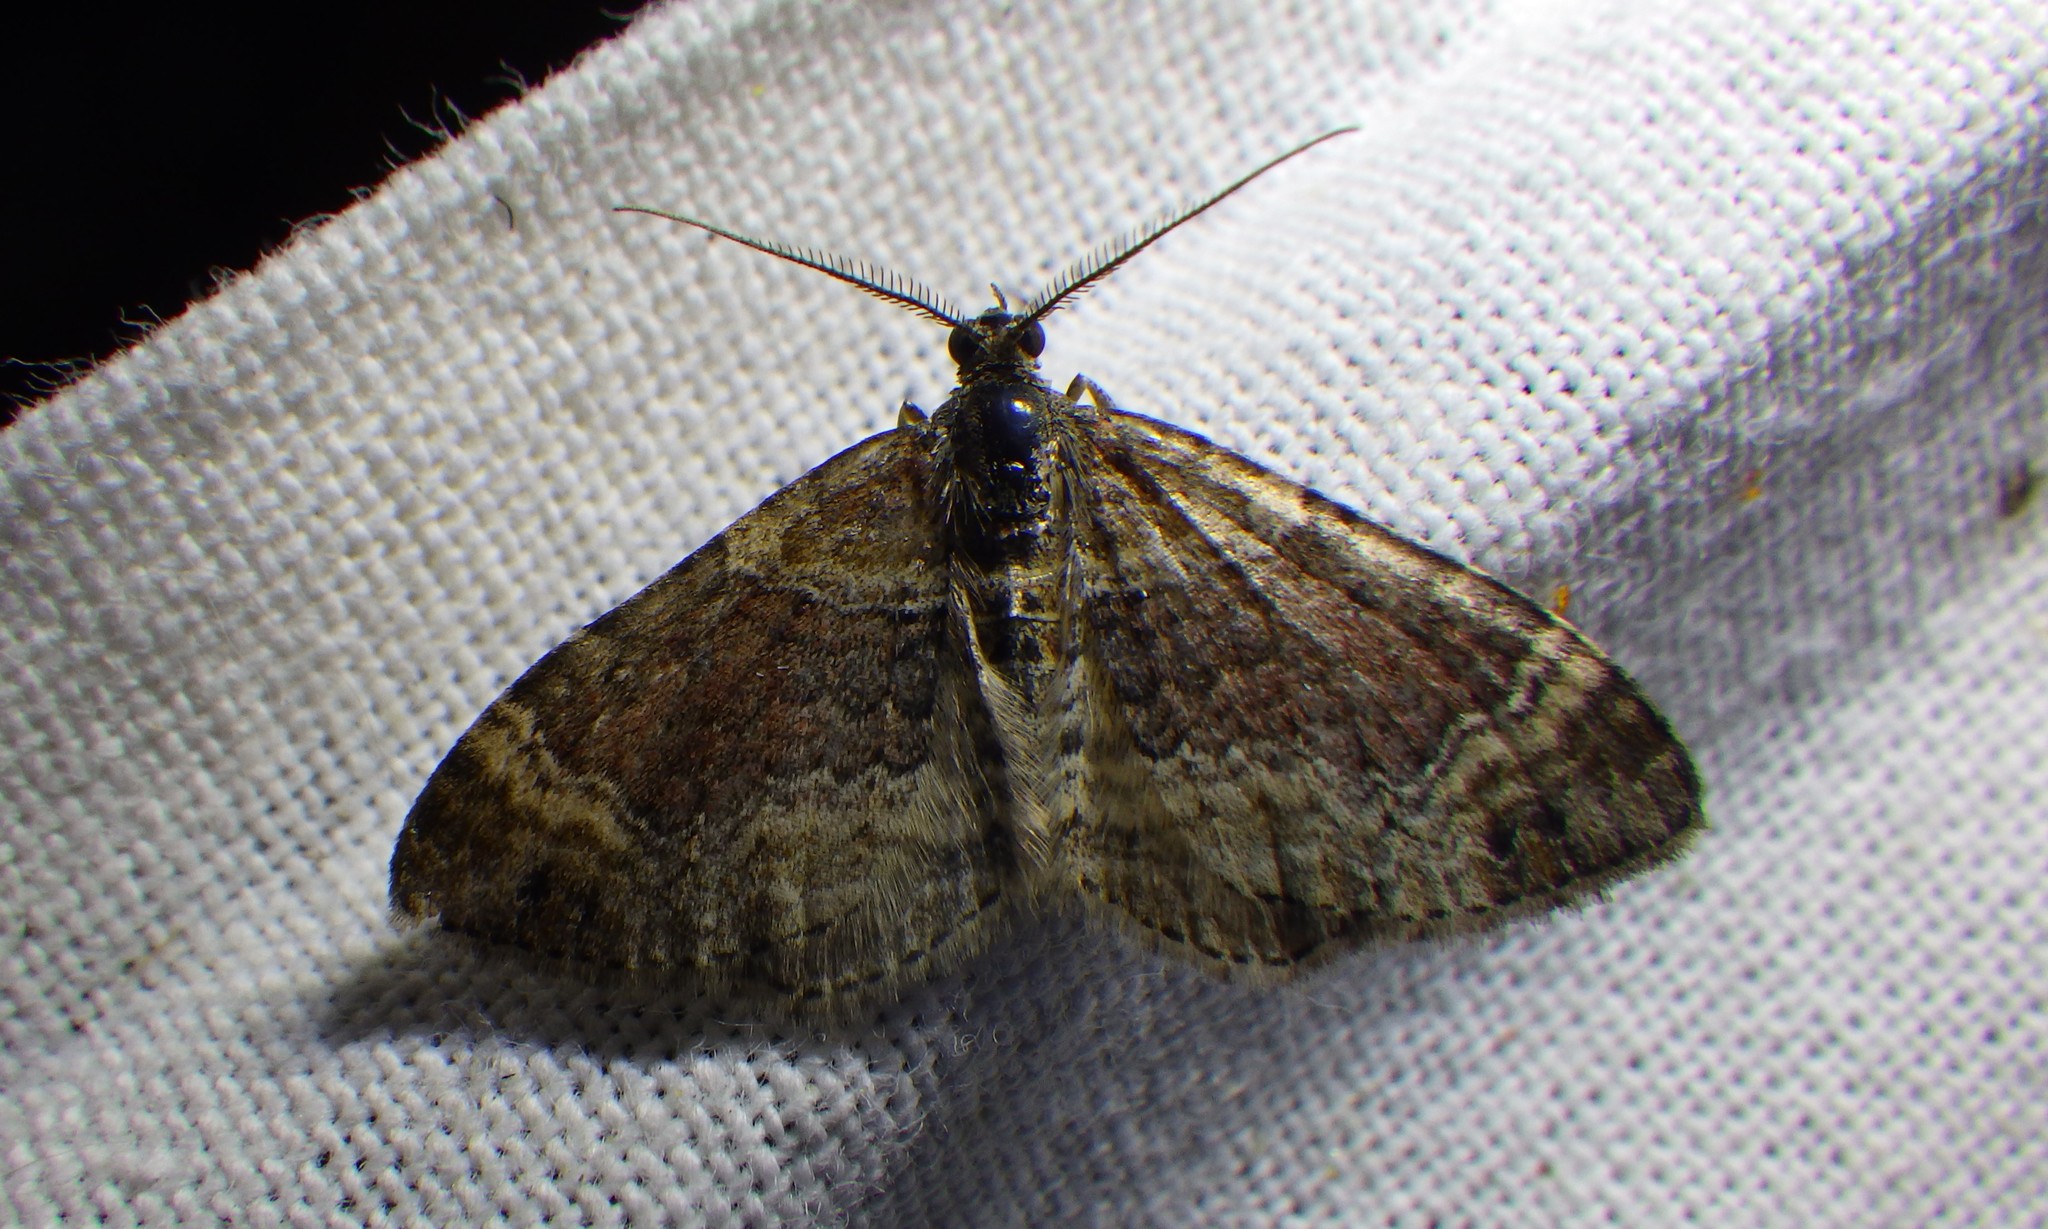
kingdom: Animalia
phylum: Arthropoda
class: Insecta
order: Lepidoptera
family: Geometridae
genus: Xanthorhoe
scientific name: Xanthorhoe ferrugata
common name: Dark-barred twin-spot carpet
